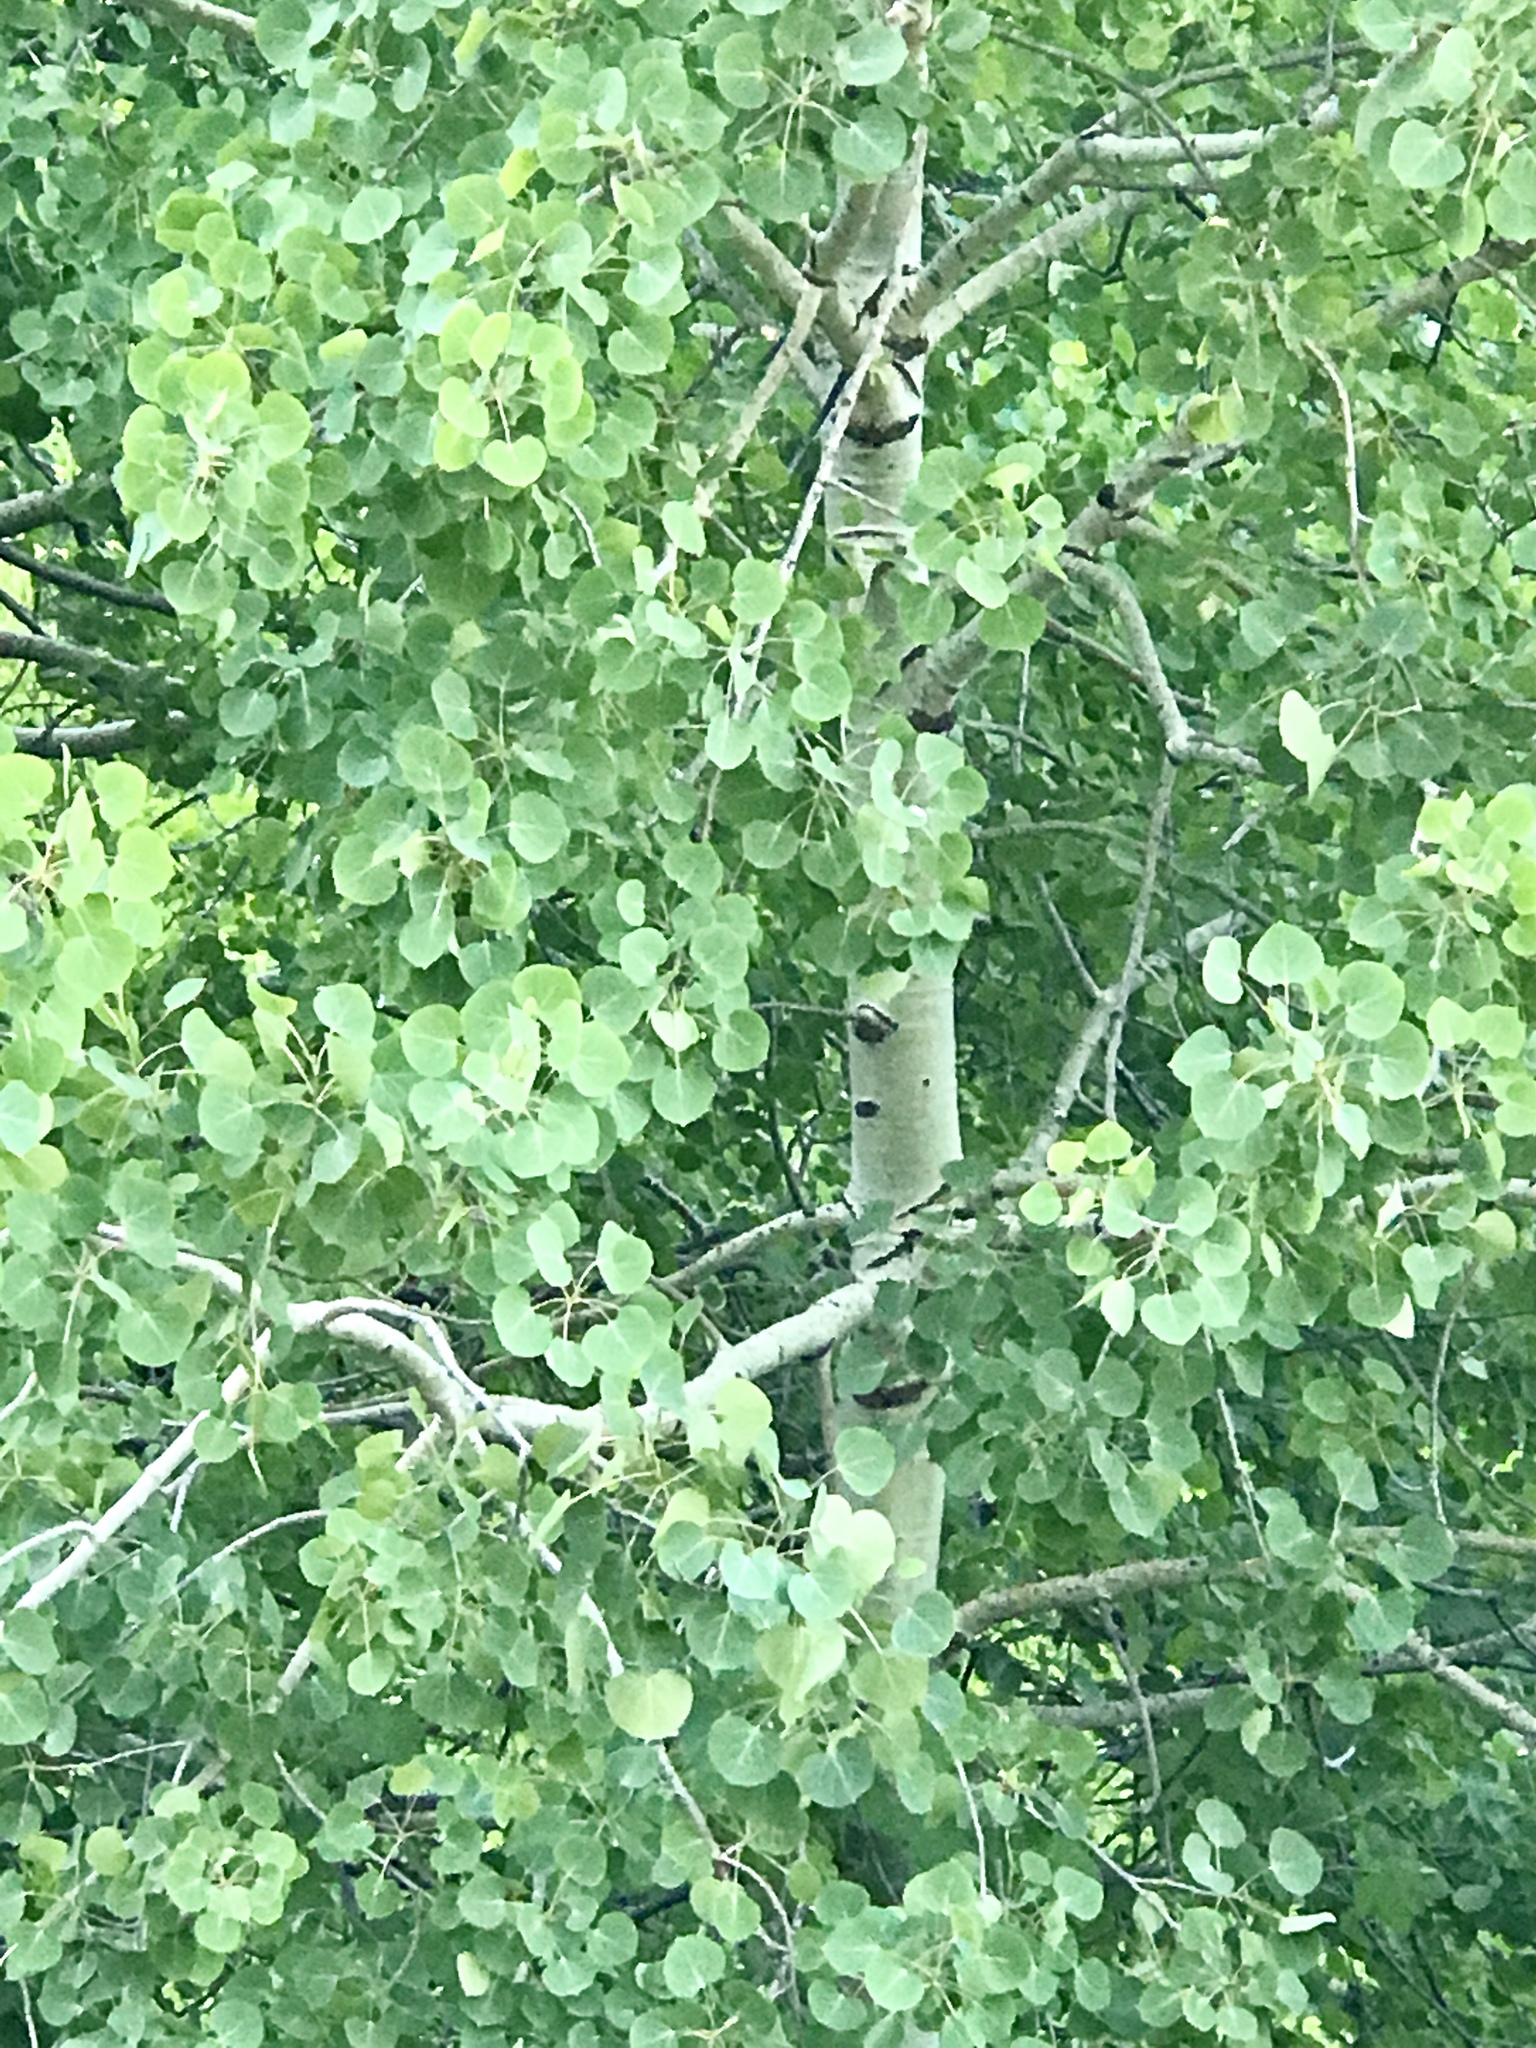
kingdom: Plantae
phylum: Tracheophyta
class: Magnoliopsida
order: Malpighiales
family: Salicaceae
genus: Populus
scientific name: Populus tremuloides
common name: Quaking aspen
